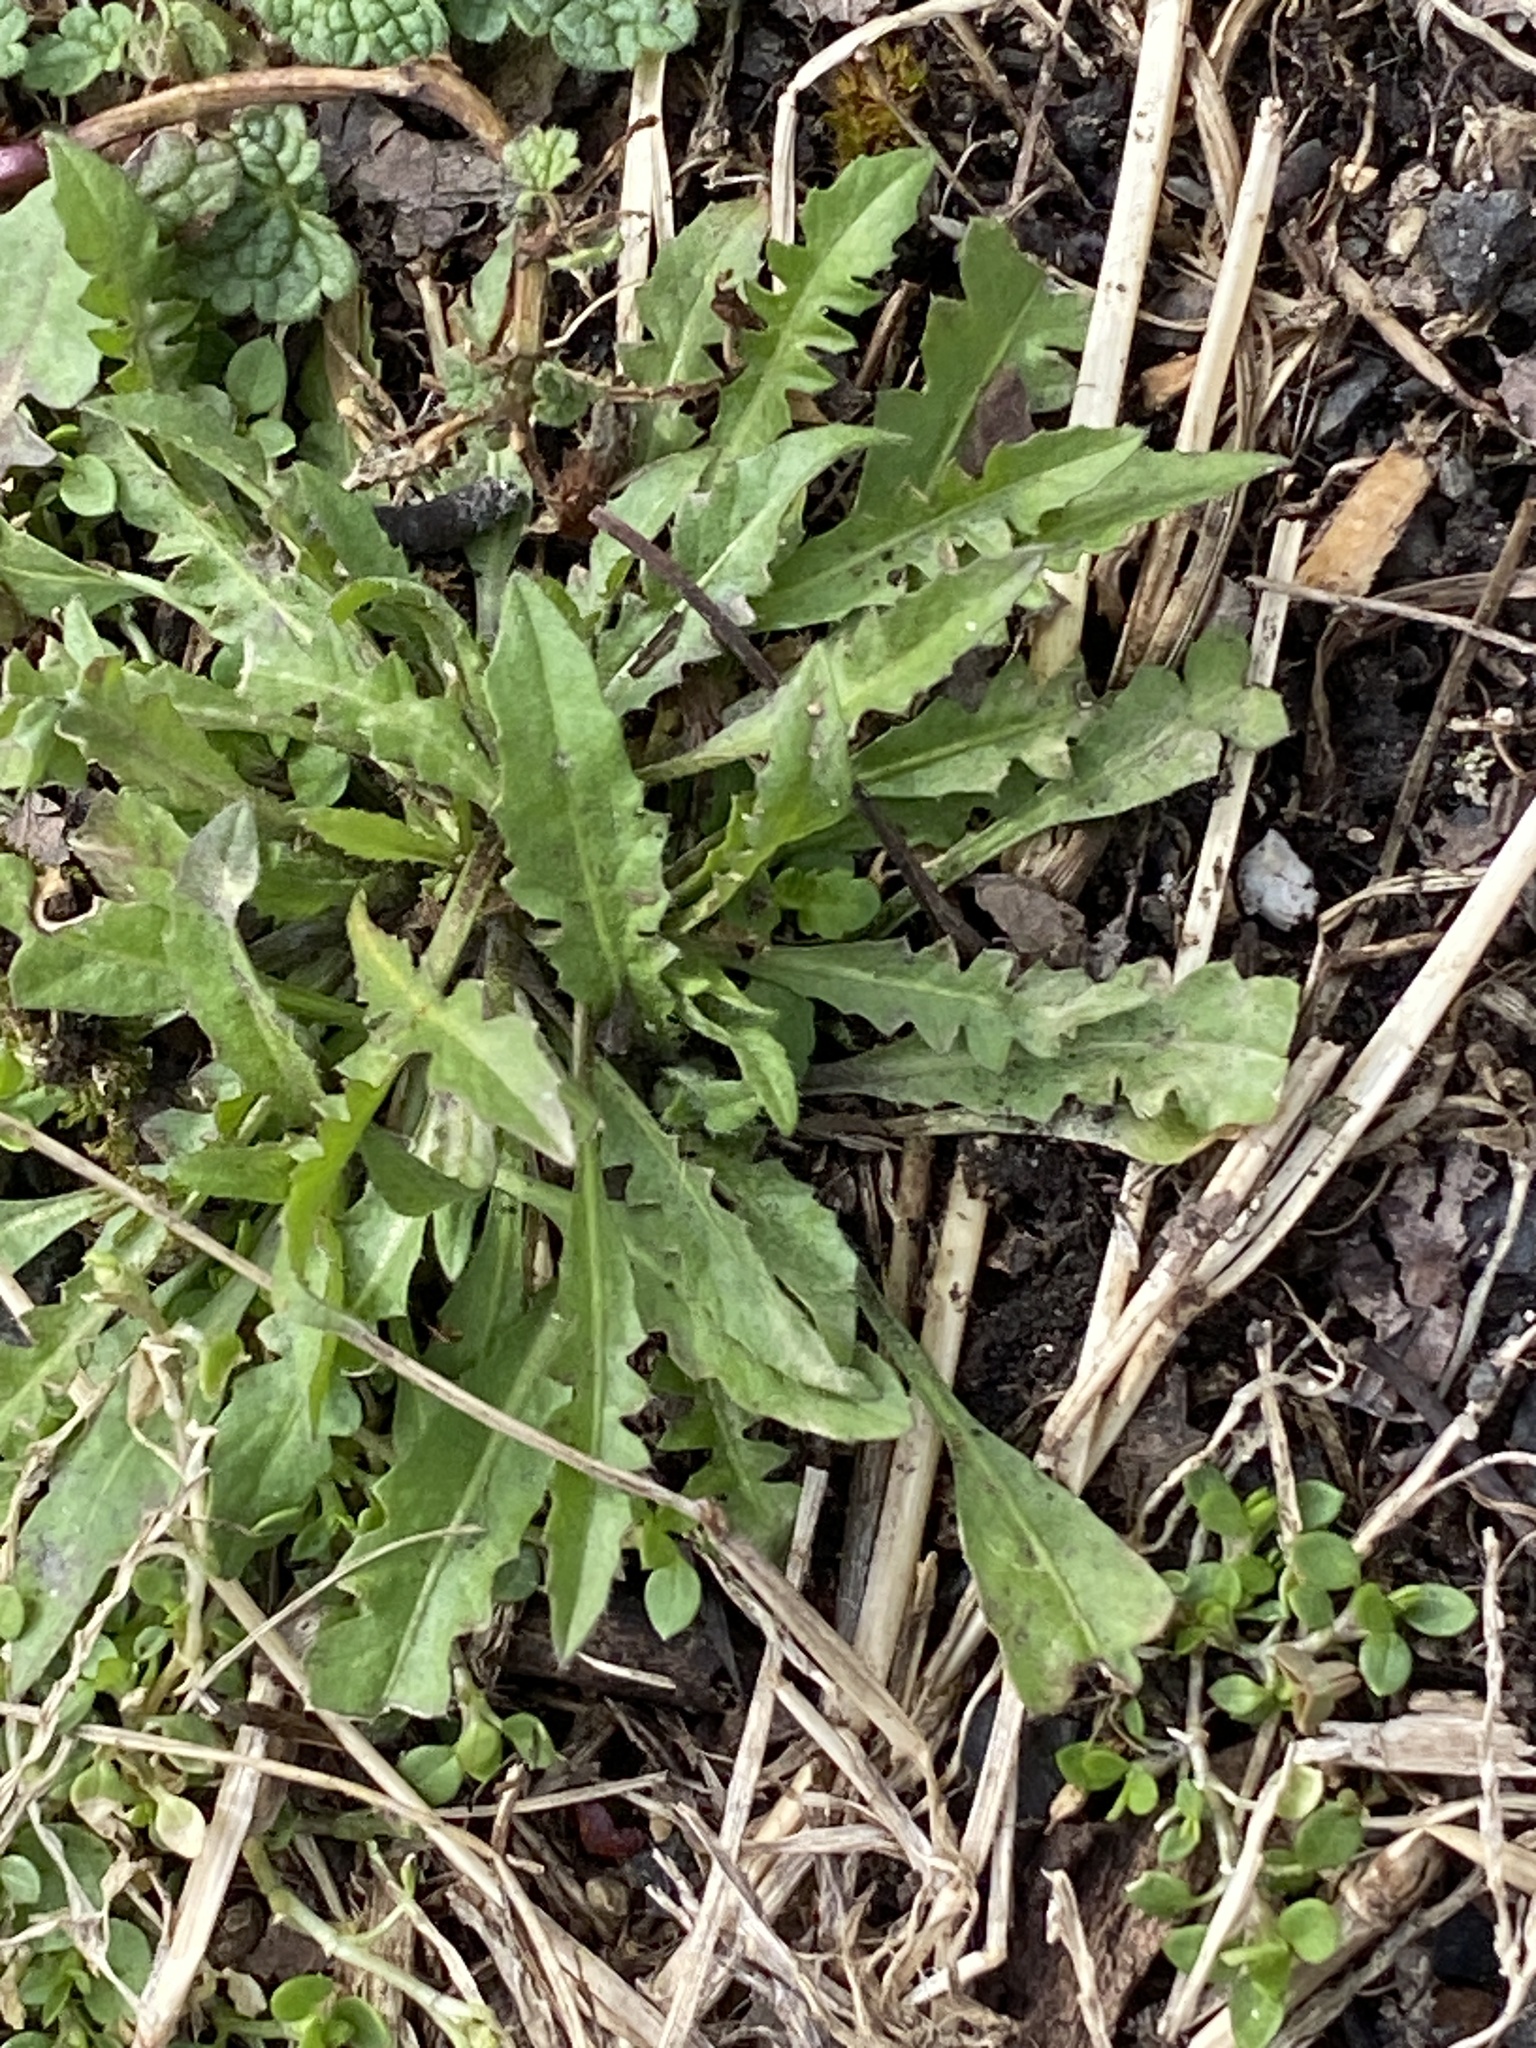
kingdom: Plantae
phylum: Tracheophyta
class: Magnoliopsida
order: Brassicales
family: Brassicaceae
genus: Capsella
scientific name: Capsella bursa-pastoris
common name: Shepherd's purse
